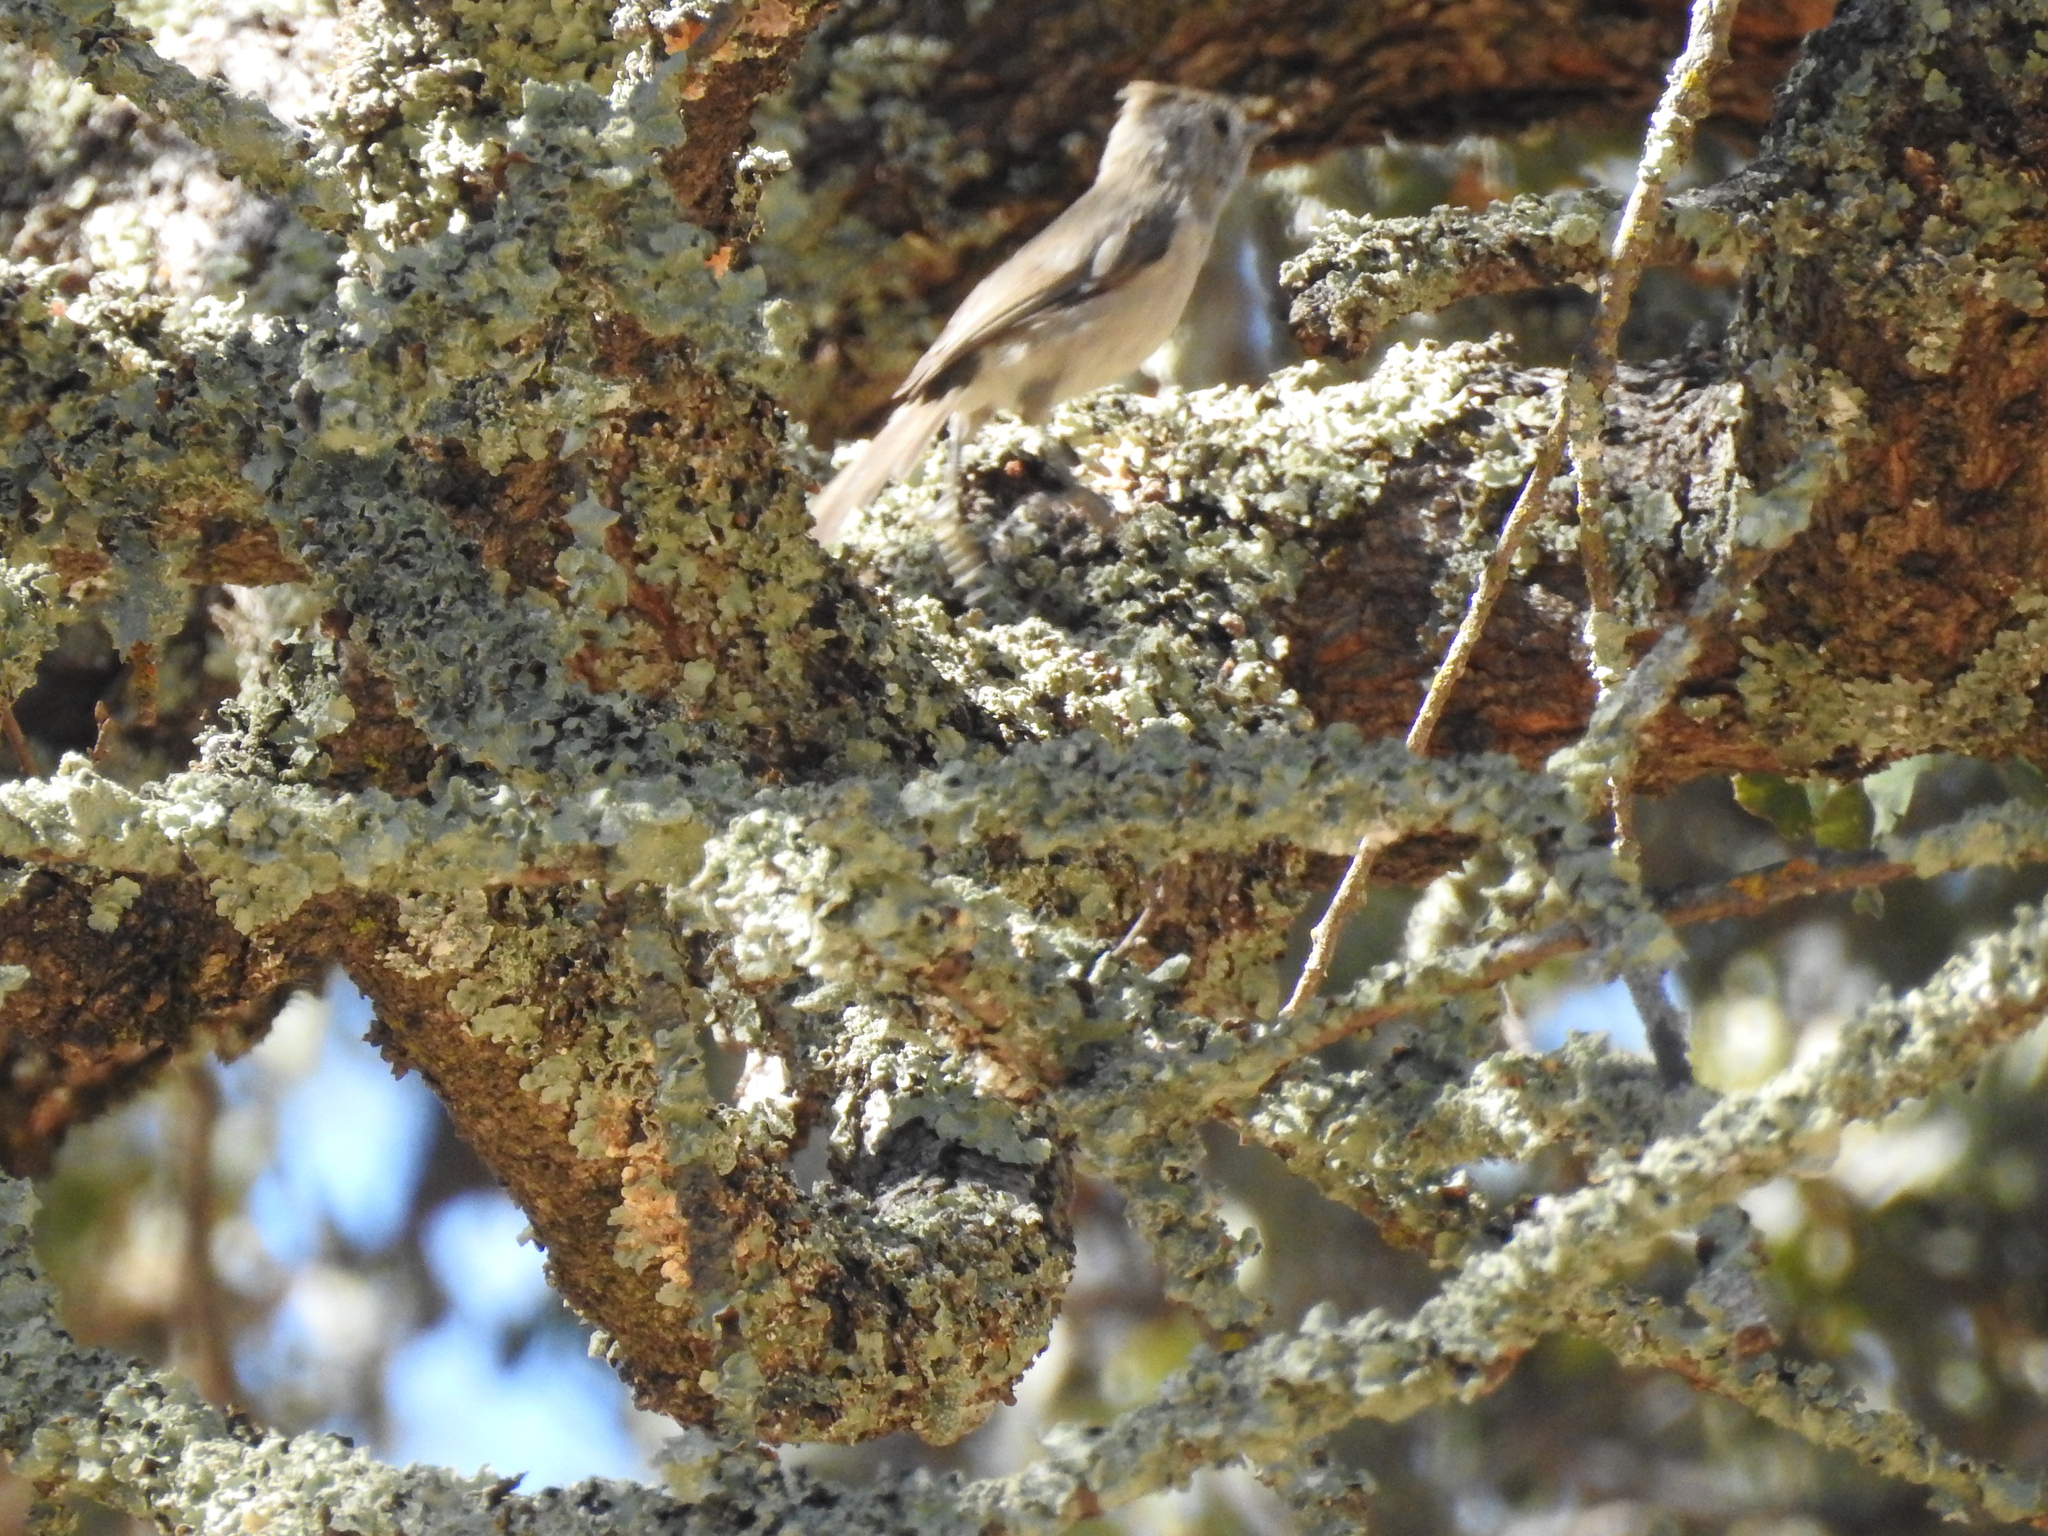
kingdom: Animalia
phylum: Chordata
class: Aves
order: Passeriformes
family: Paridae
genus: Baeolophus
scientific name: Baeolophus inornatus
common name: Oak titmouse
